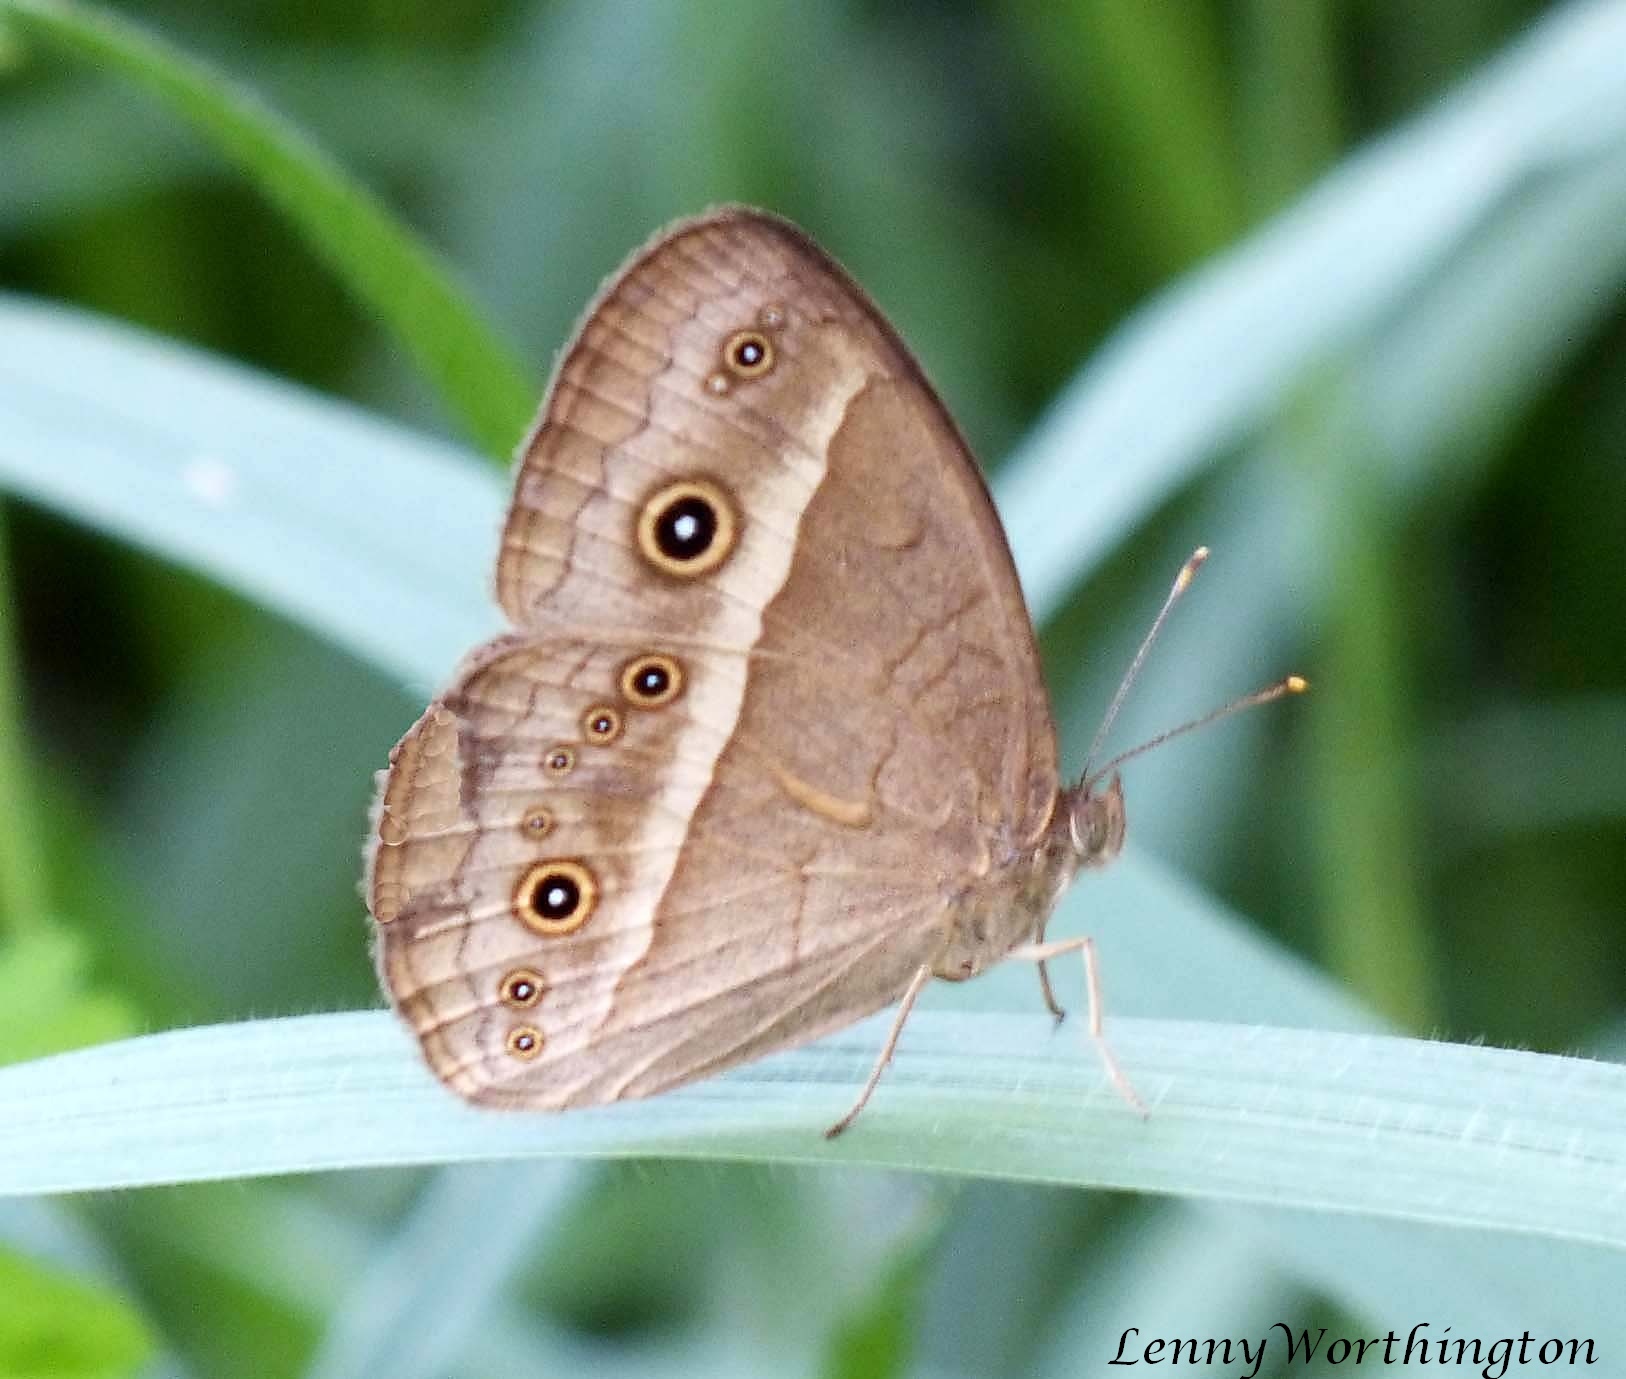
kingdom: Animalia
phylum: Arthropoda
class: Insecta
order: Lepidoptera
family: Nymphalidae
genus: Mycalesis
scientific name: Mycalesis gotama
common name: Chinese bushbrown
